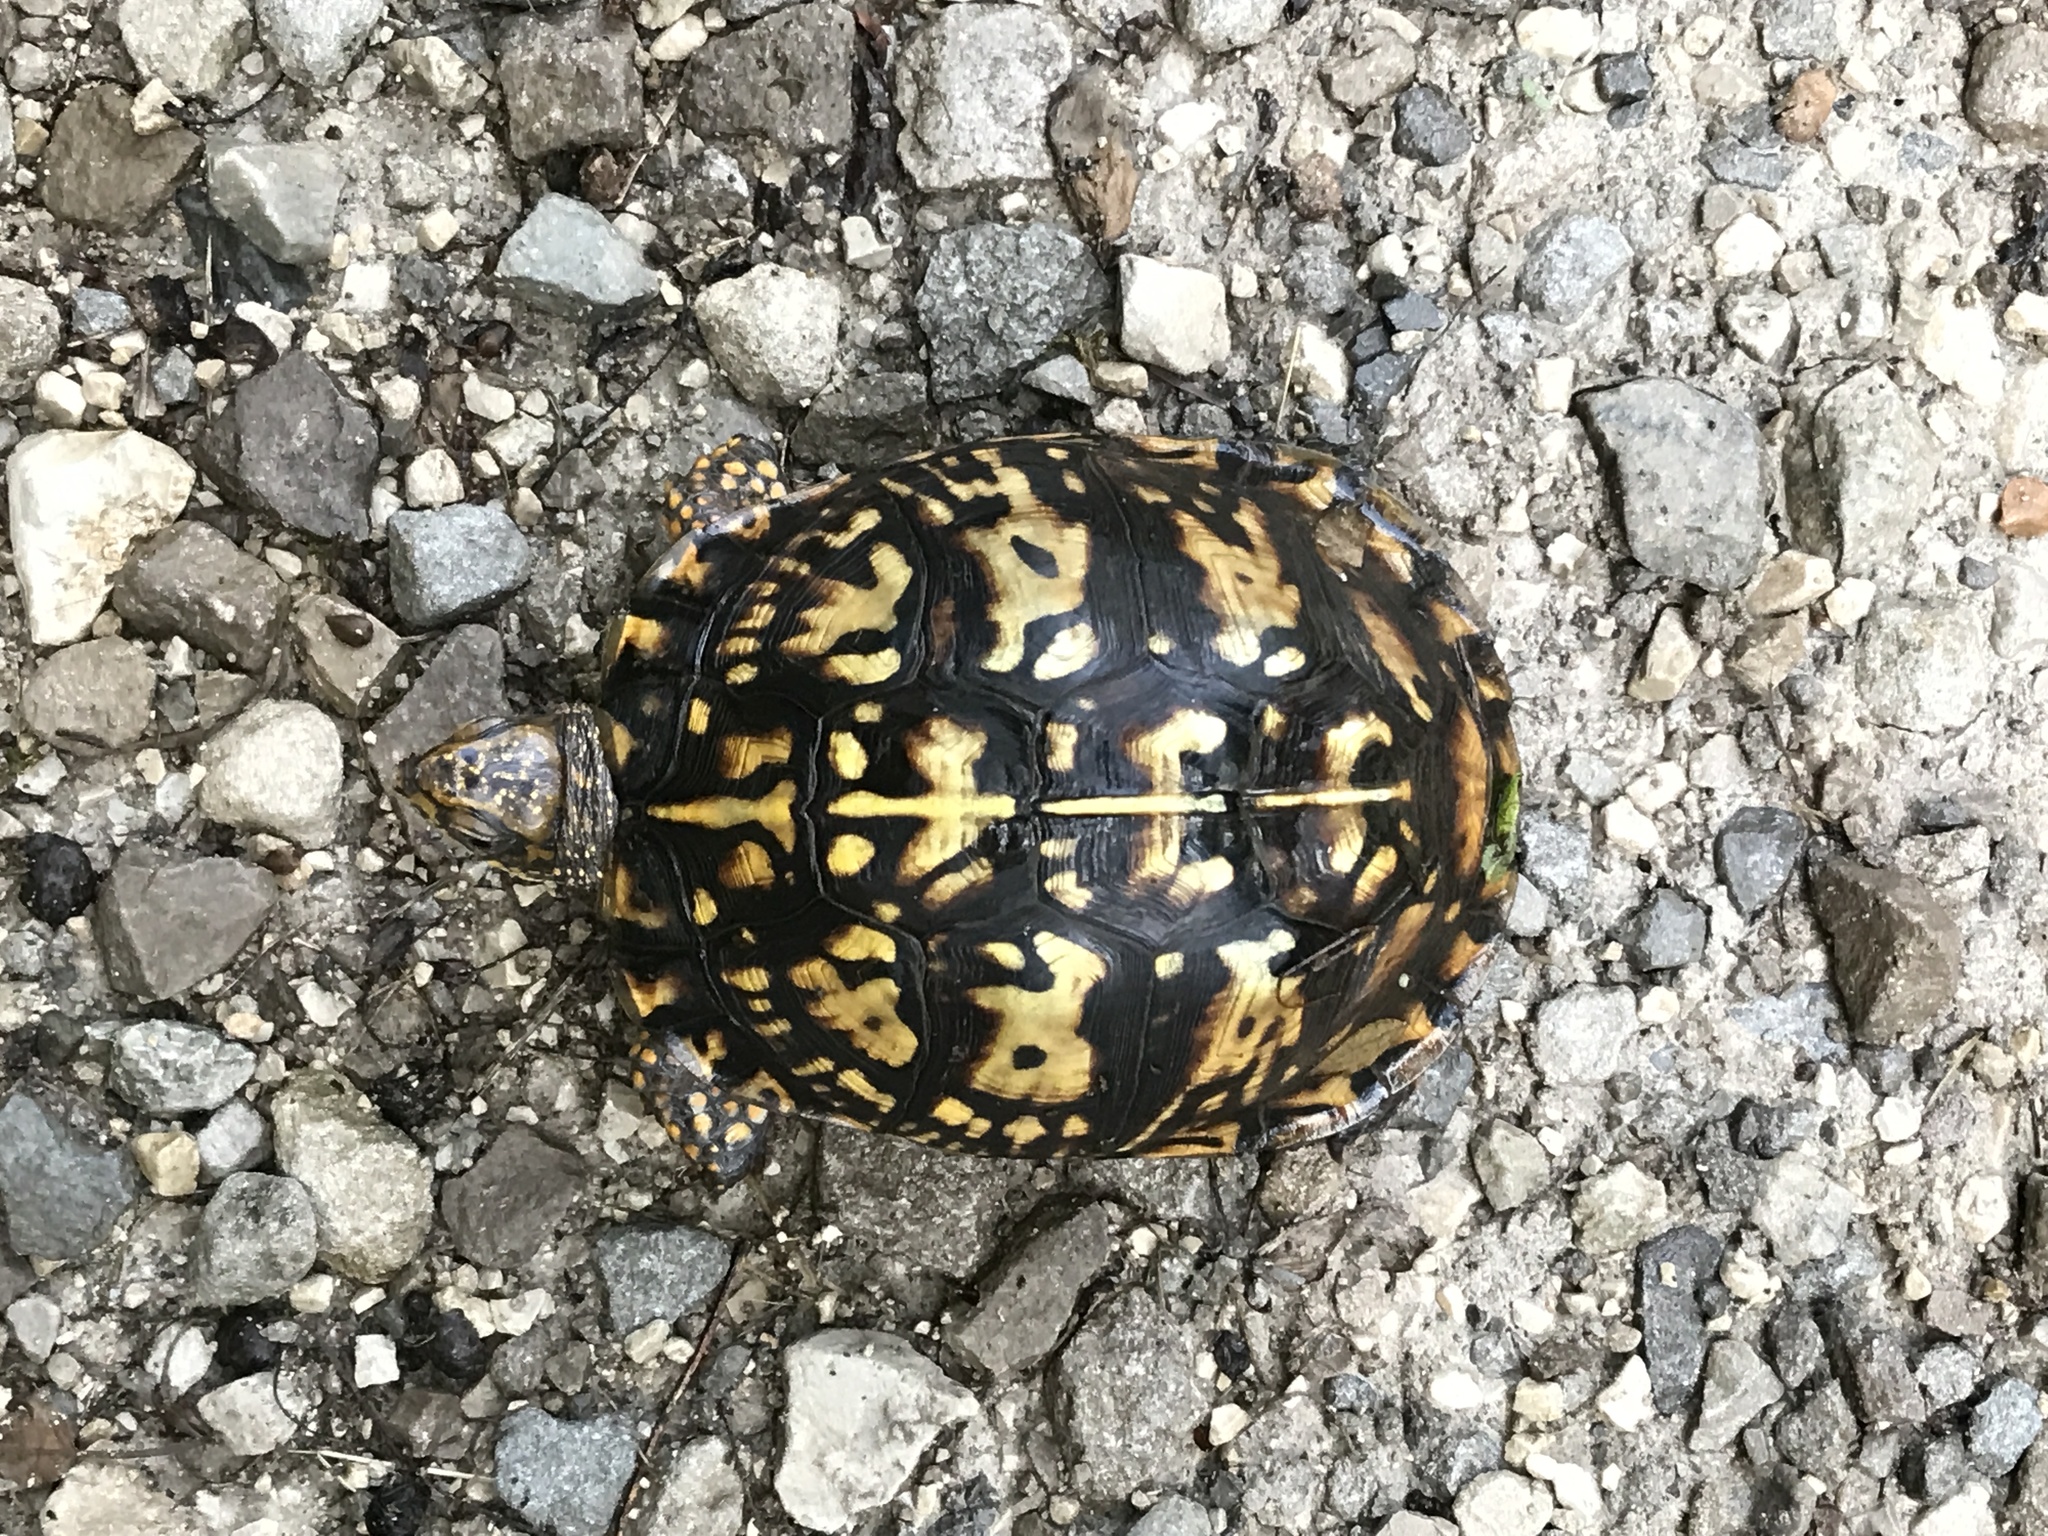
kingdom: Animalia
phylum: Chordata
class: Testudines
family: Emydidae
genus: Terrapene
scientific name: Terrapene carolina
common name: Common box turtle
